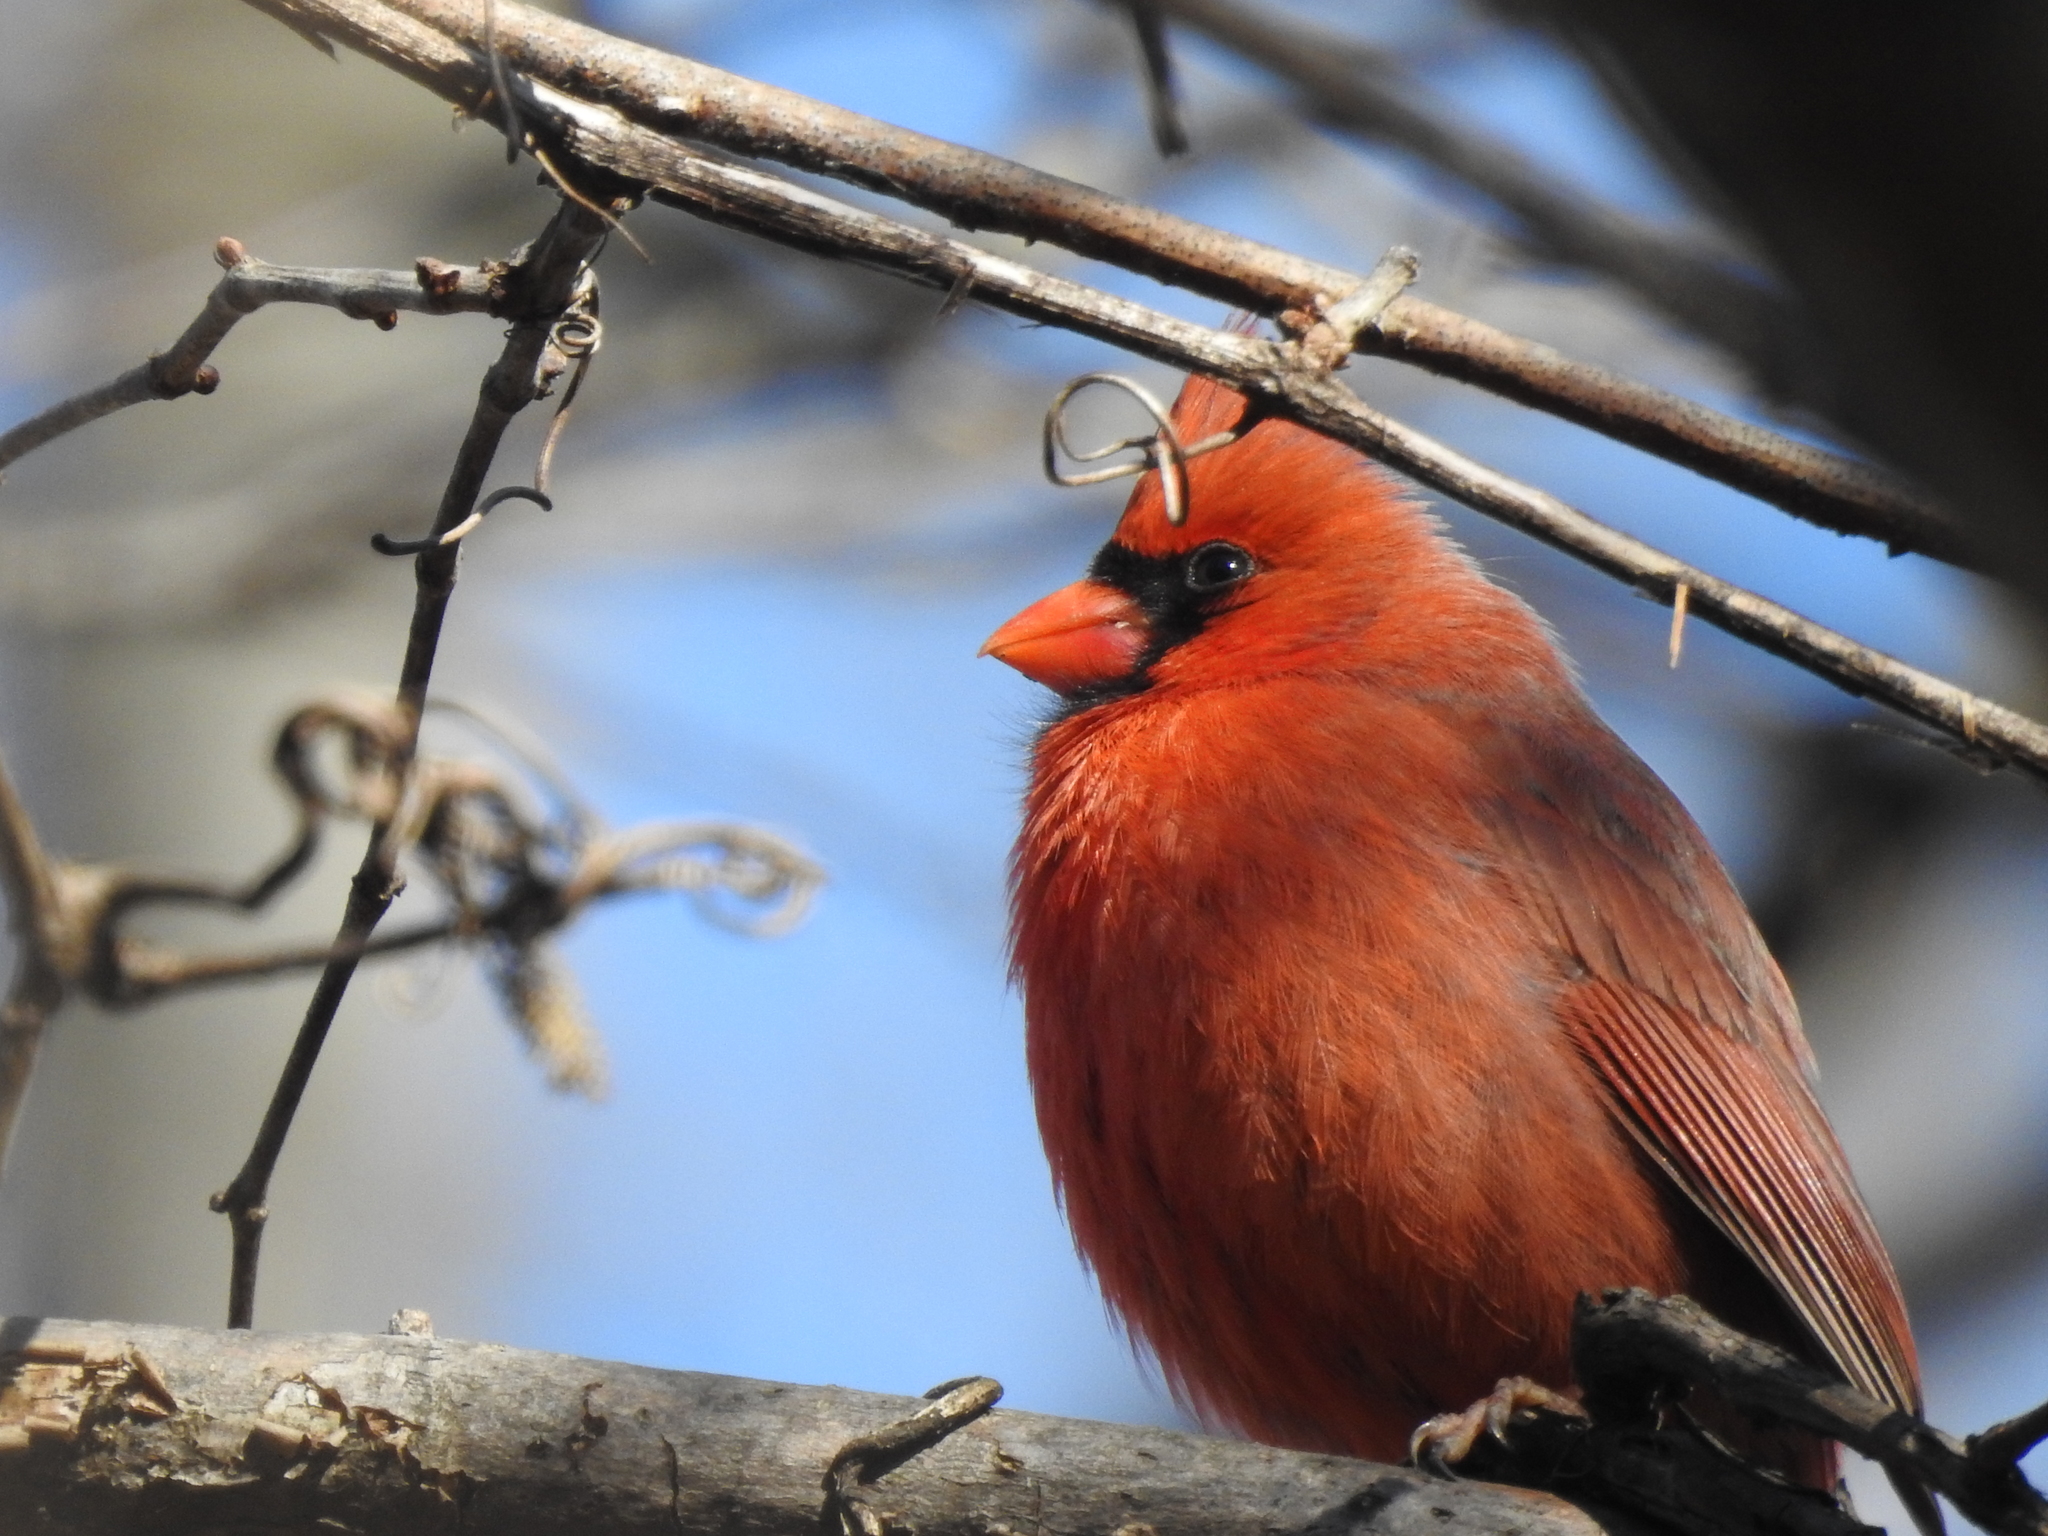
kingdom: Animalia
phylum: Chordata
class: Aves
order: Passeriformes
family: Cardinalidae
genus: Cardinalis
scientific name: Cardinalis cardinalis
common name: Northern cardinal
